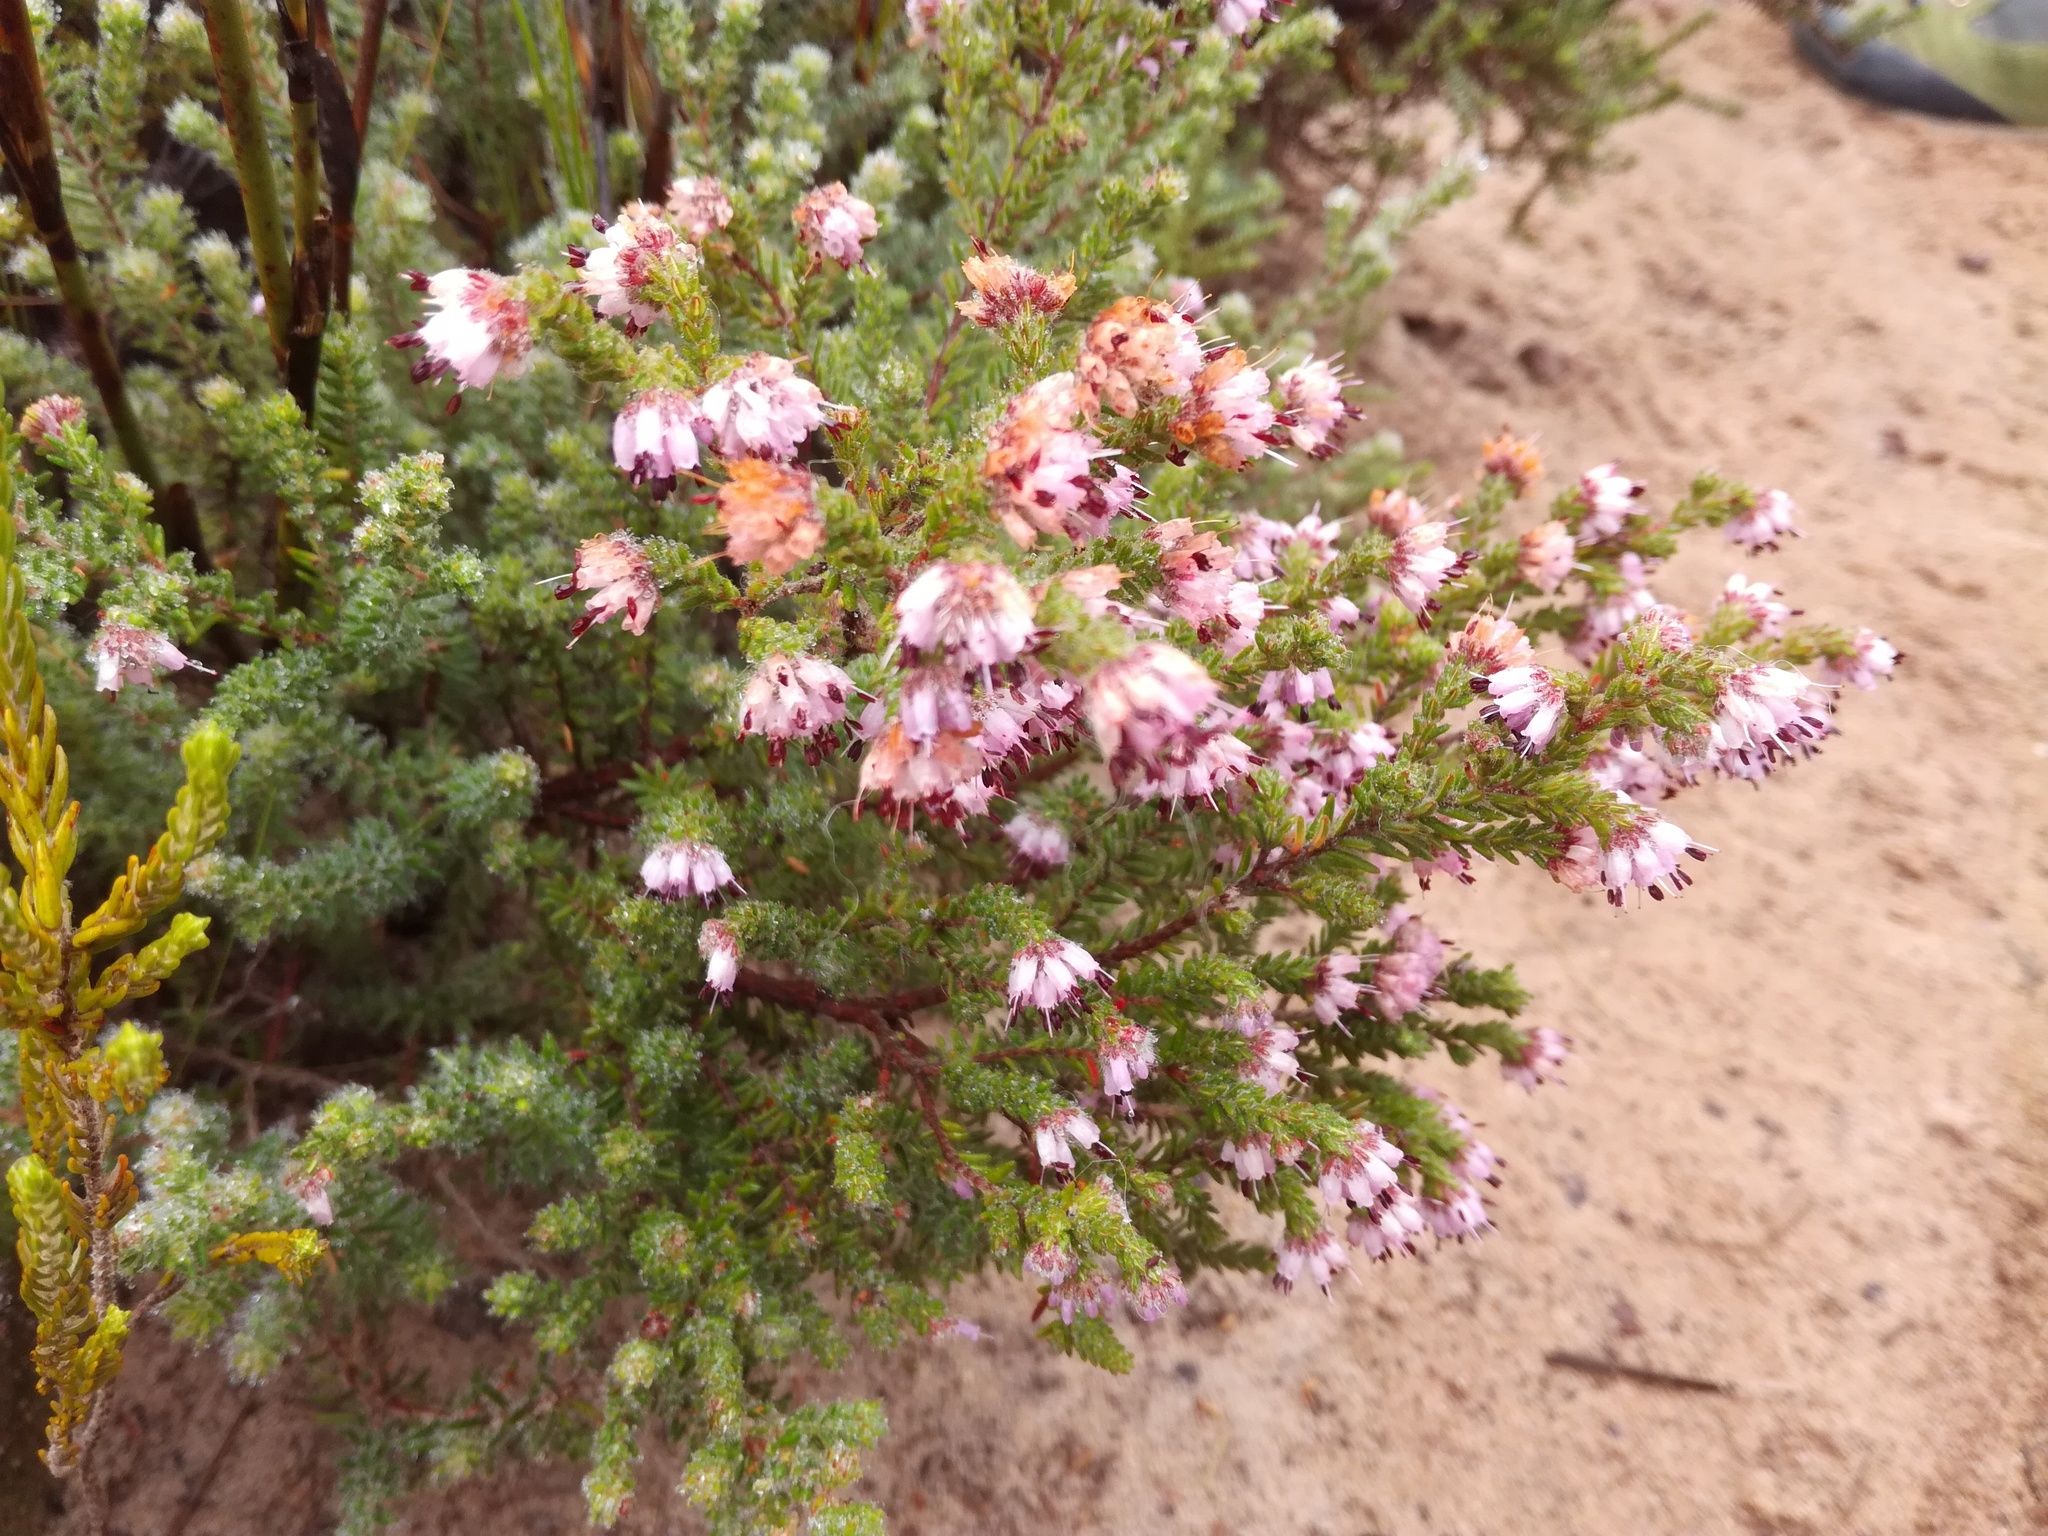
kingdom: Plantae
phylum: Tracheophyta
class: Magnoliopsida
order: Ericales
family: Ericaceae
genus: Erica
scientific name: Erica ericoides
